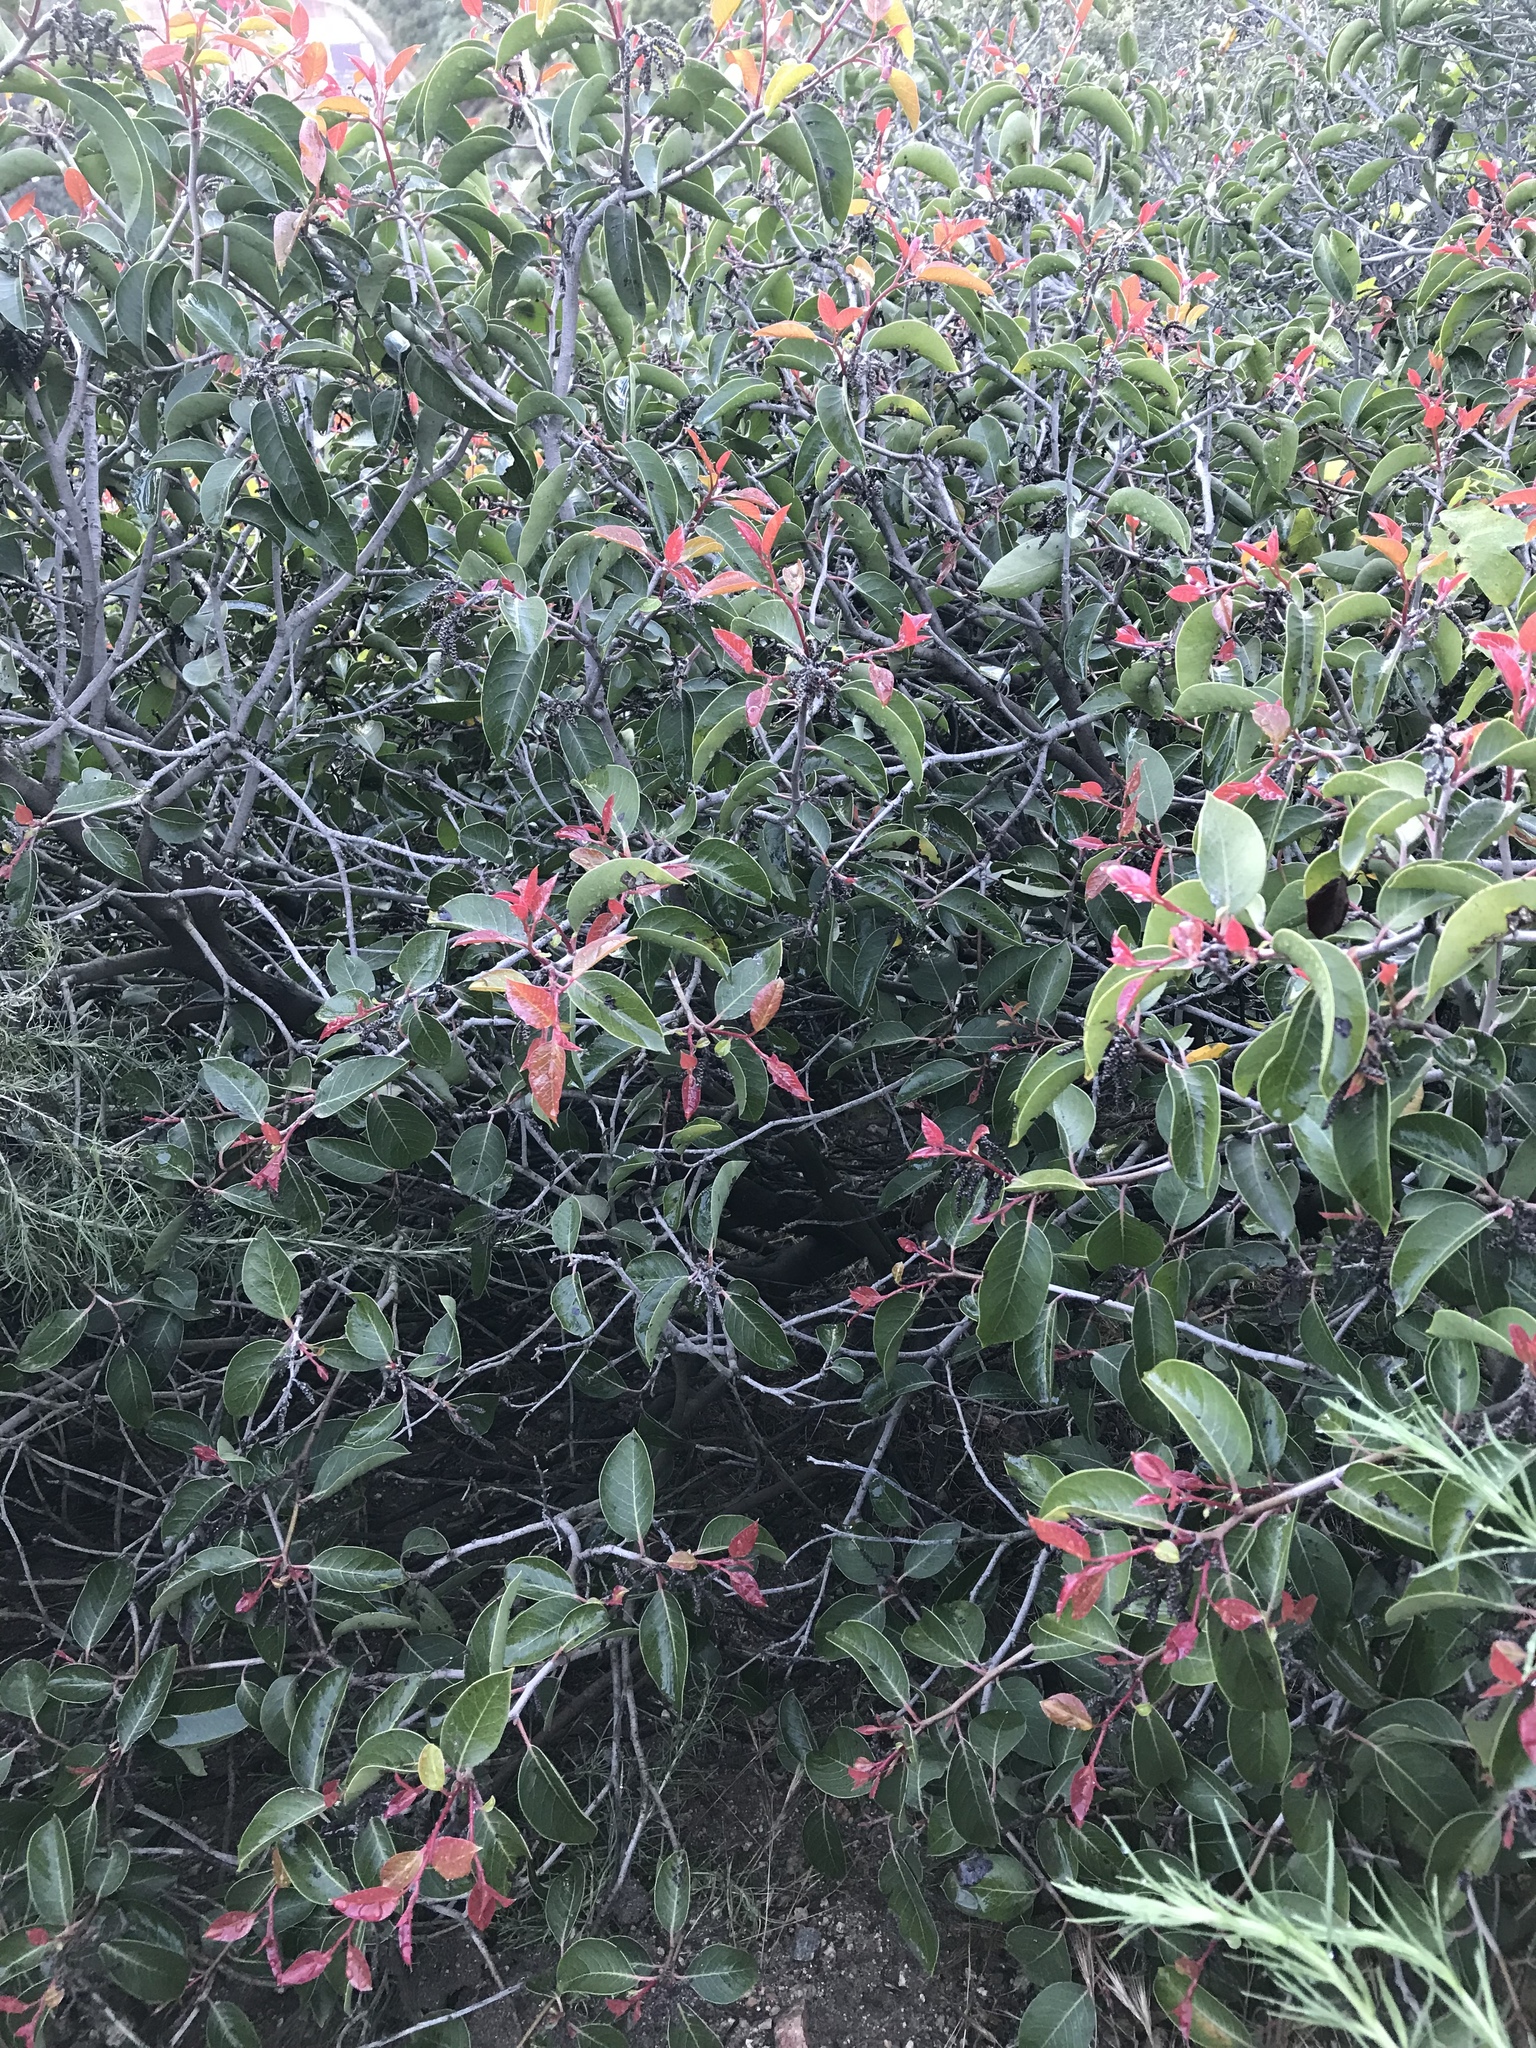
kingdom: Plantae
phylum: Tracheophyta
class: Magnoliopsida
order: Sapindales
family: Anacardiaceae
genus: Rhus
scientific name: Rhus ovata
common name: Sugar sumac
